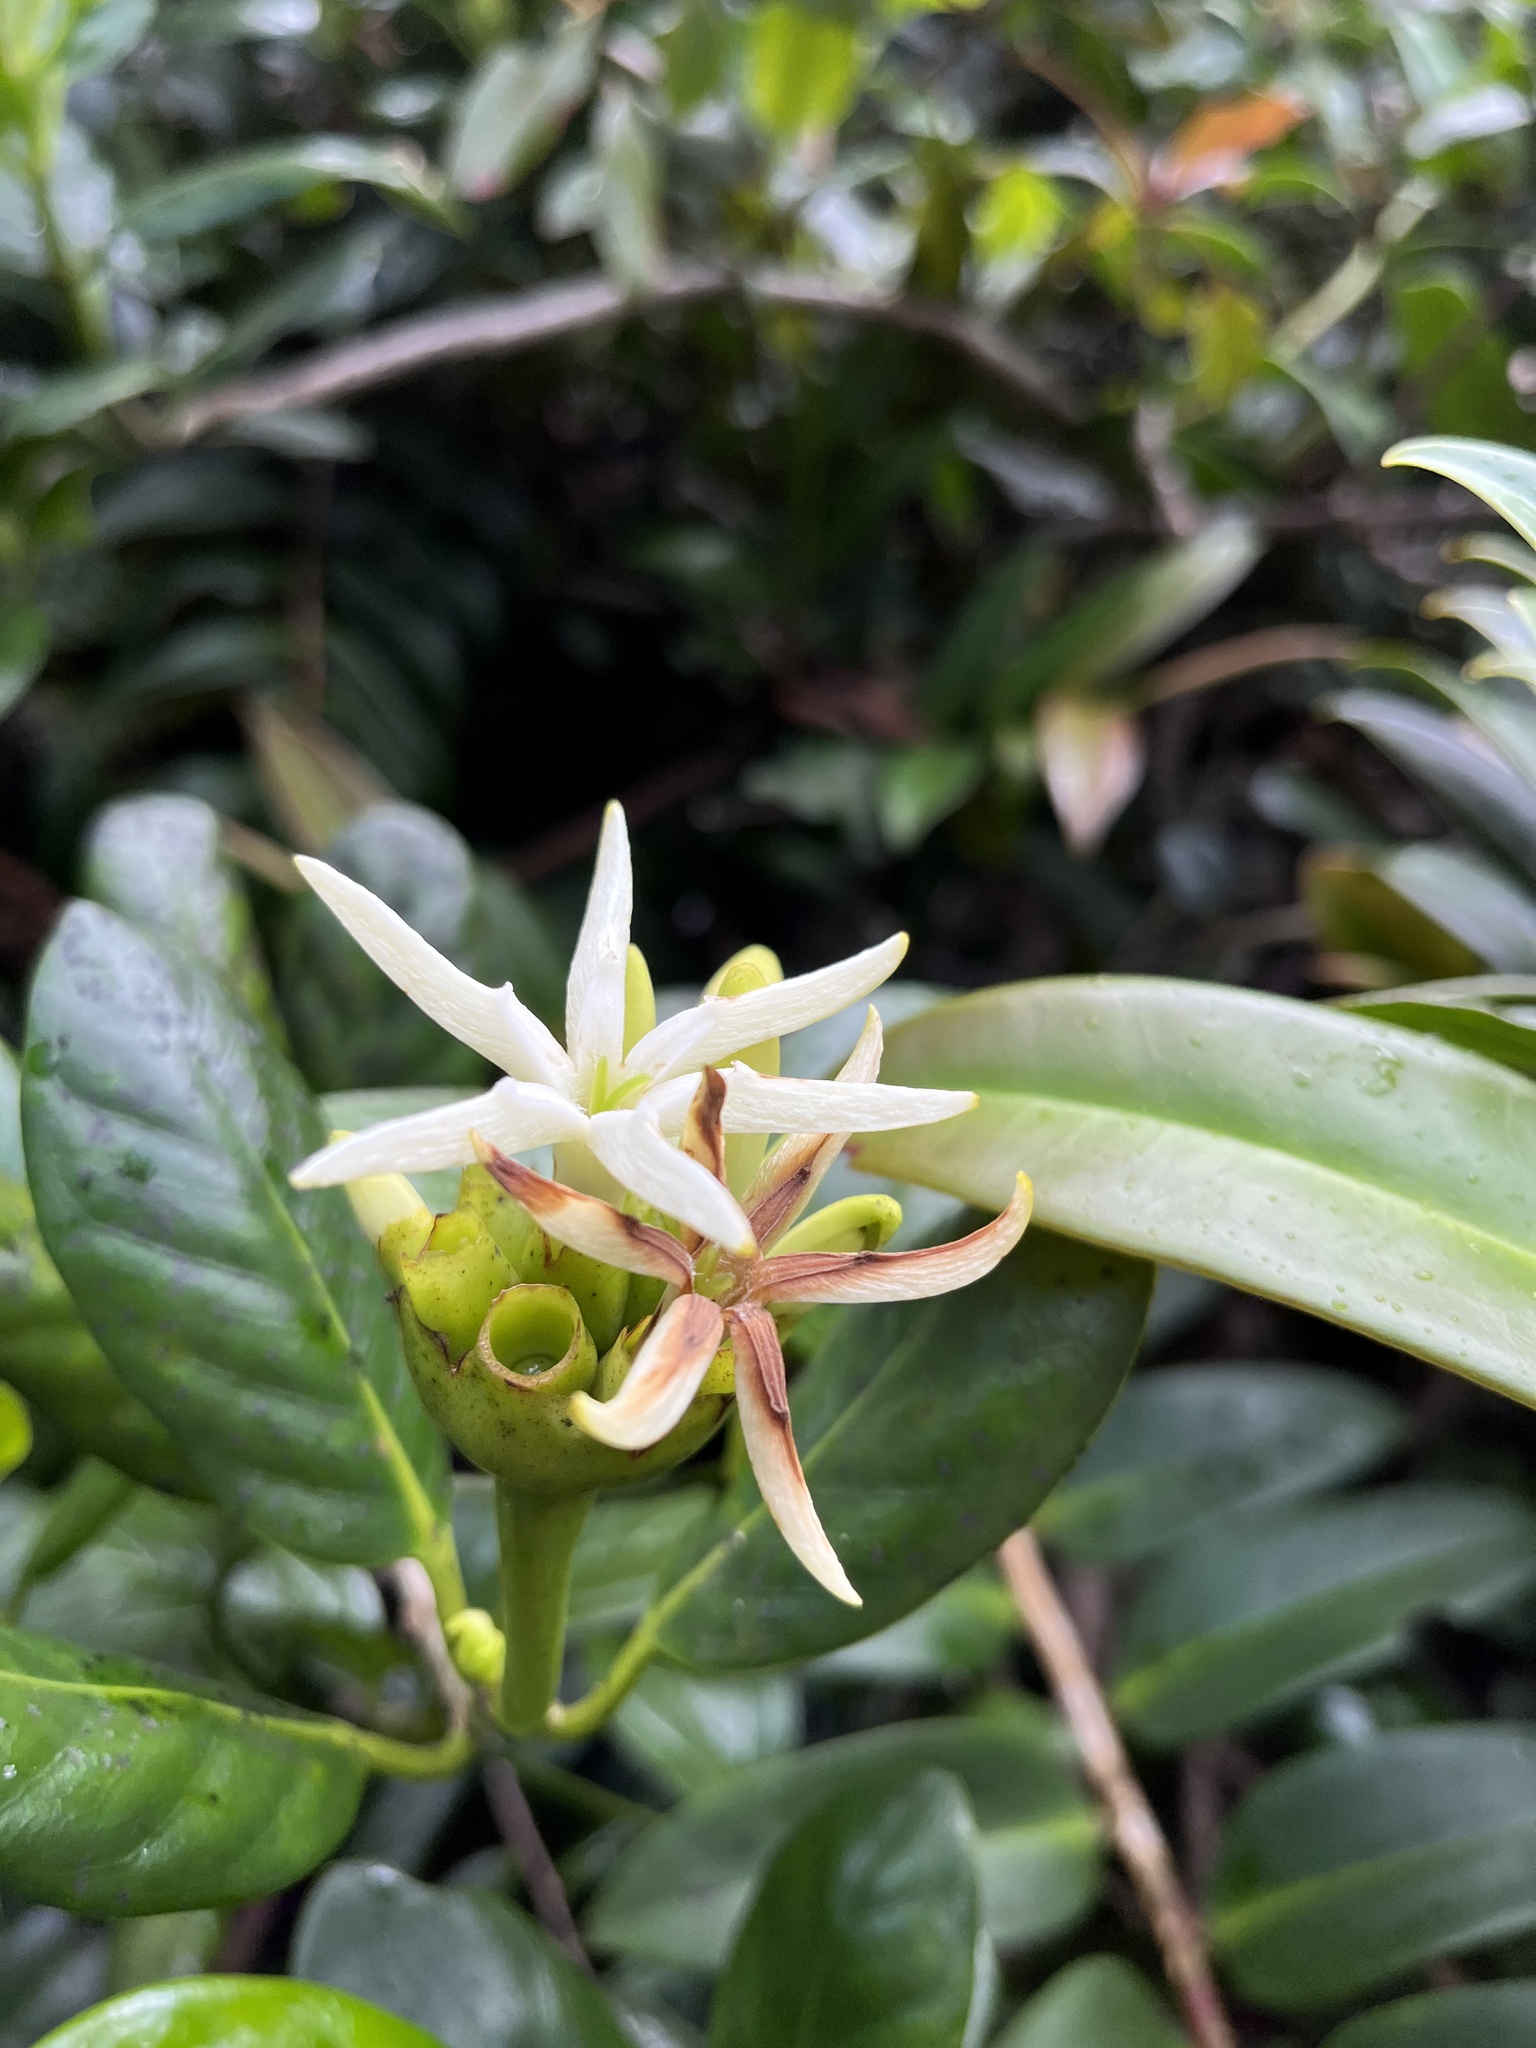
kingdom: Plantae
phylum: Tracheophyta
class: Magnoliopsida
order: Gentianales
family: Rubiaceae
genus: Schradera
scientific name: Schradera exotica
